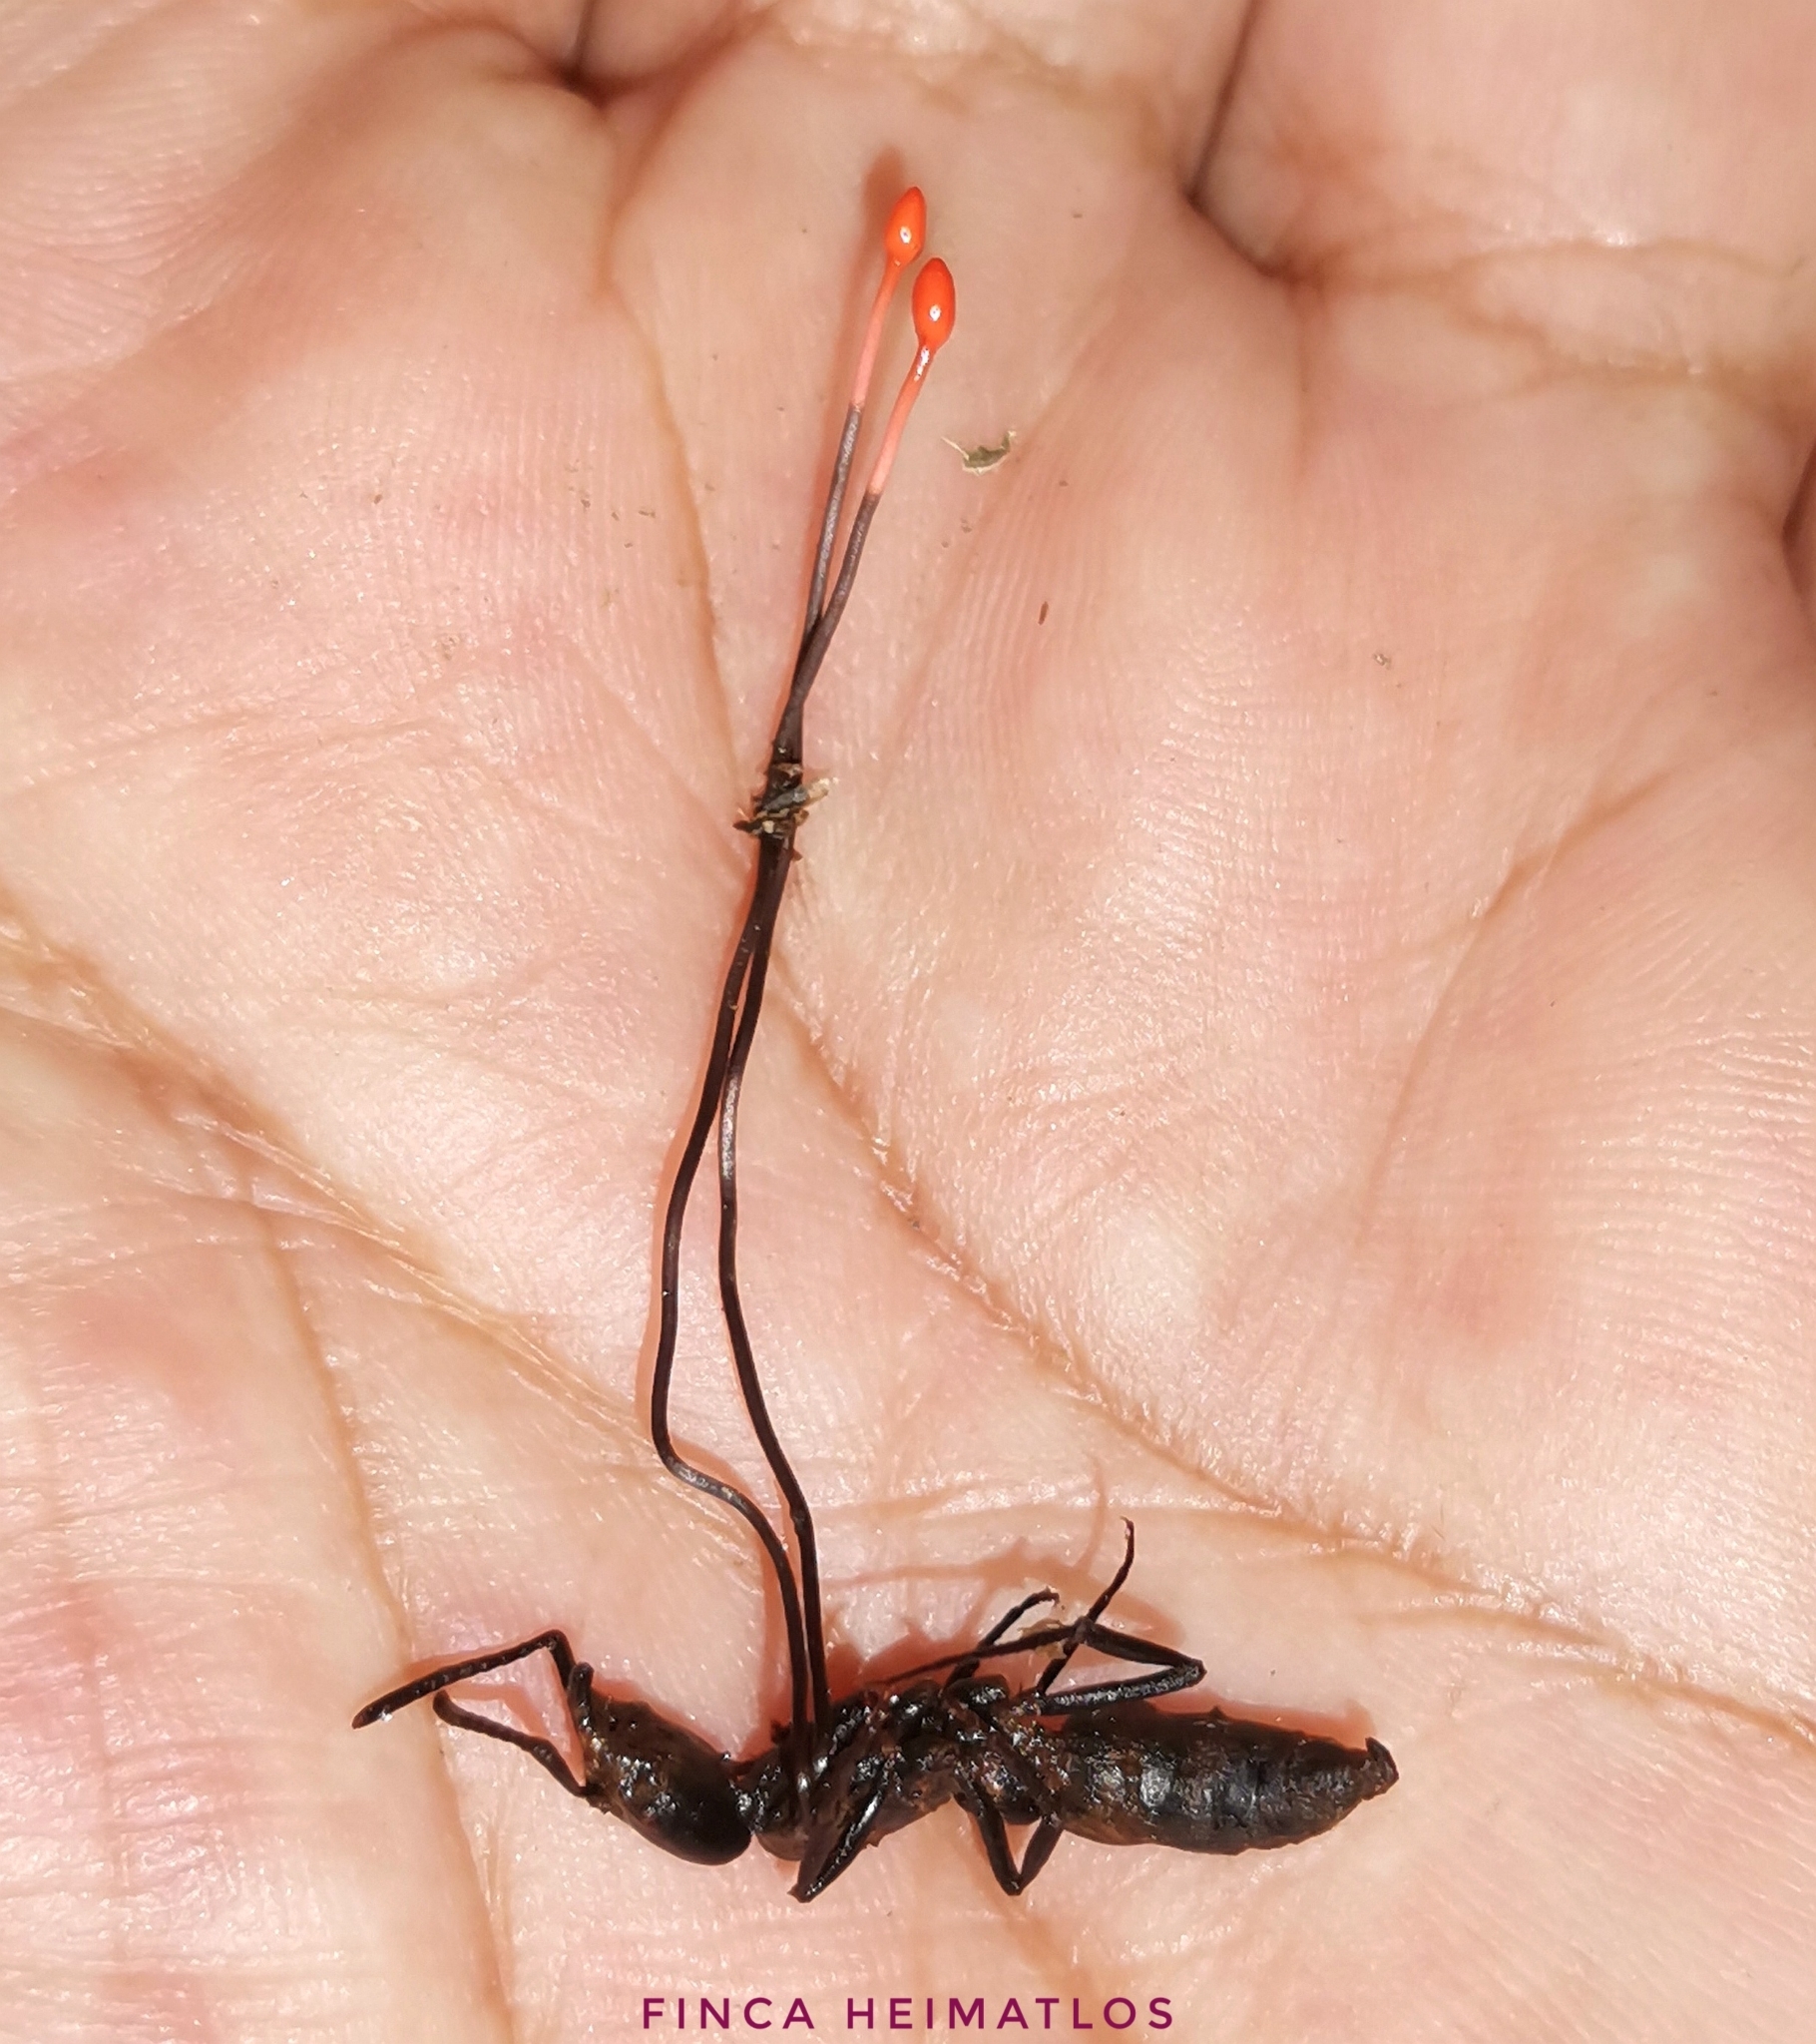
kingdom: Fungi
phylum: Ascomycota
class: Sordariomycetes
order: Hypocreales
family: Ophiocordycipitaceae
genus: Ophiocordyceps
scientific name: Ophiocordyceps australis
